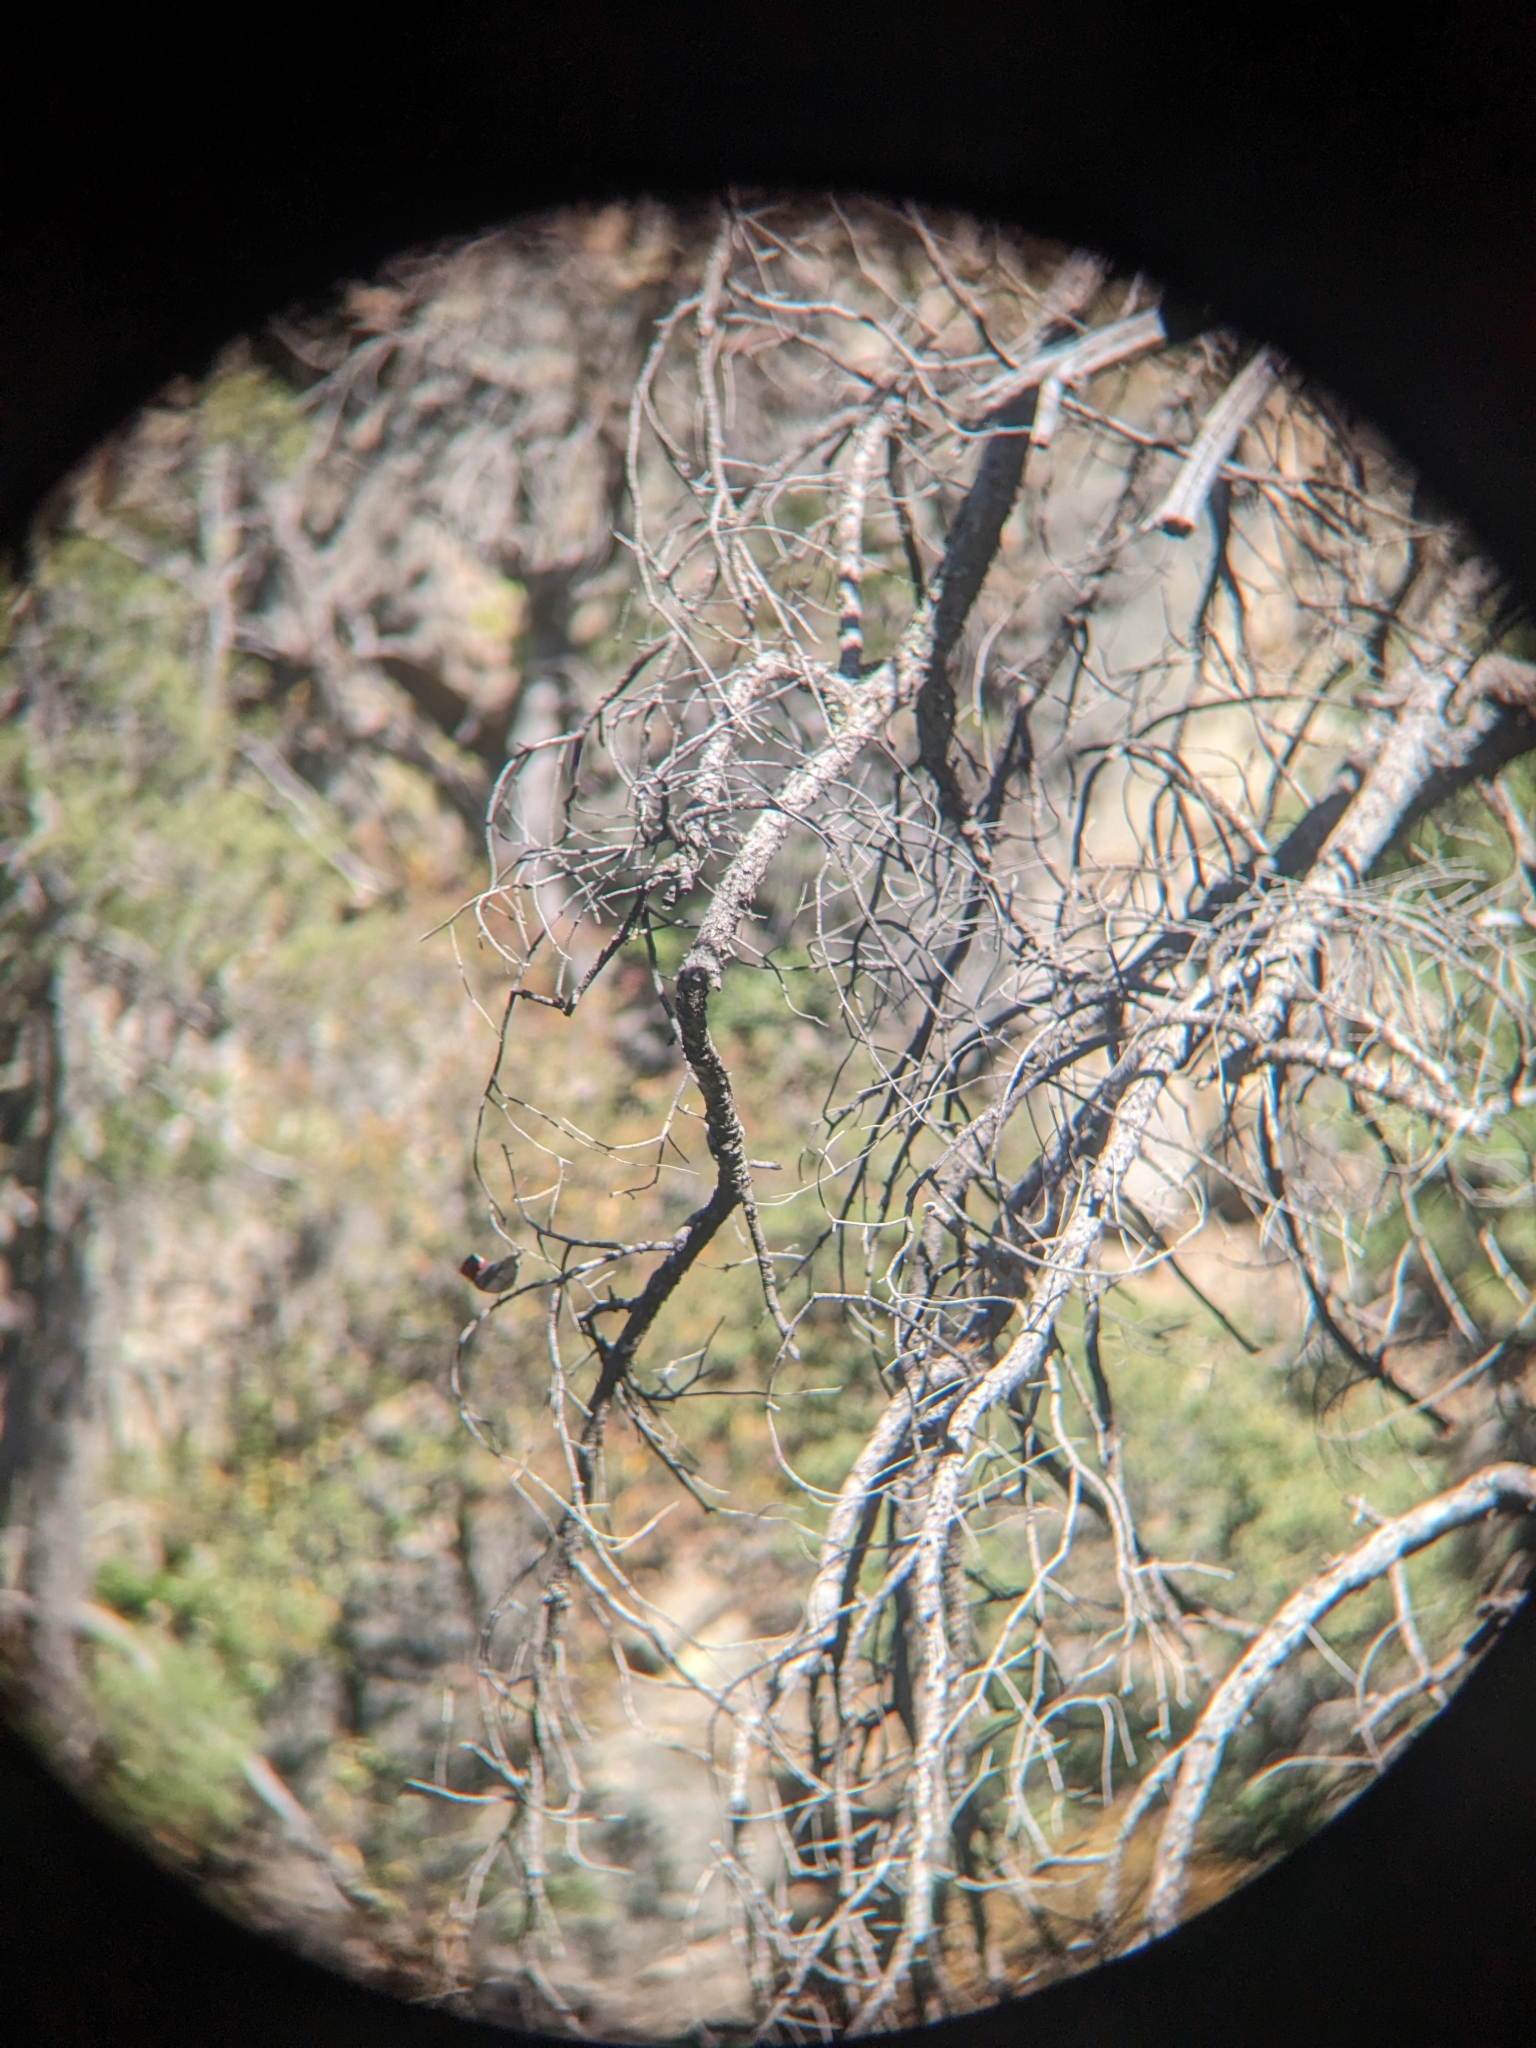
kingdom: Animalia
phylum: Chordata
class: Aves
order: Passeriformes
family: Parulidae
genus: Cardellina
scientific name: Cardellina rubrifrons
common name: Red-faced warbler
